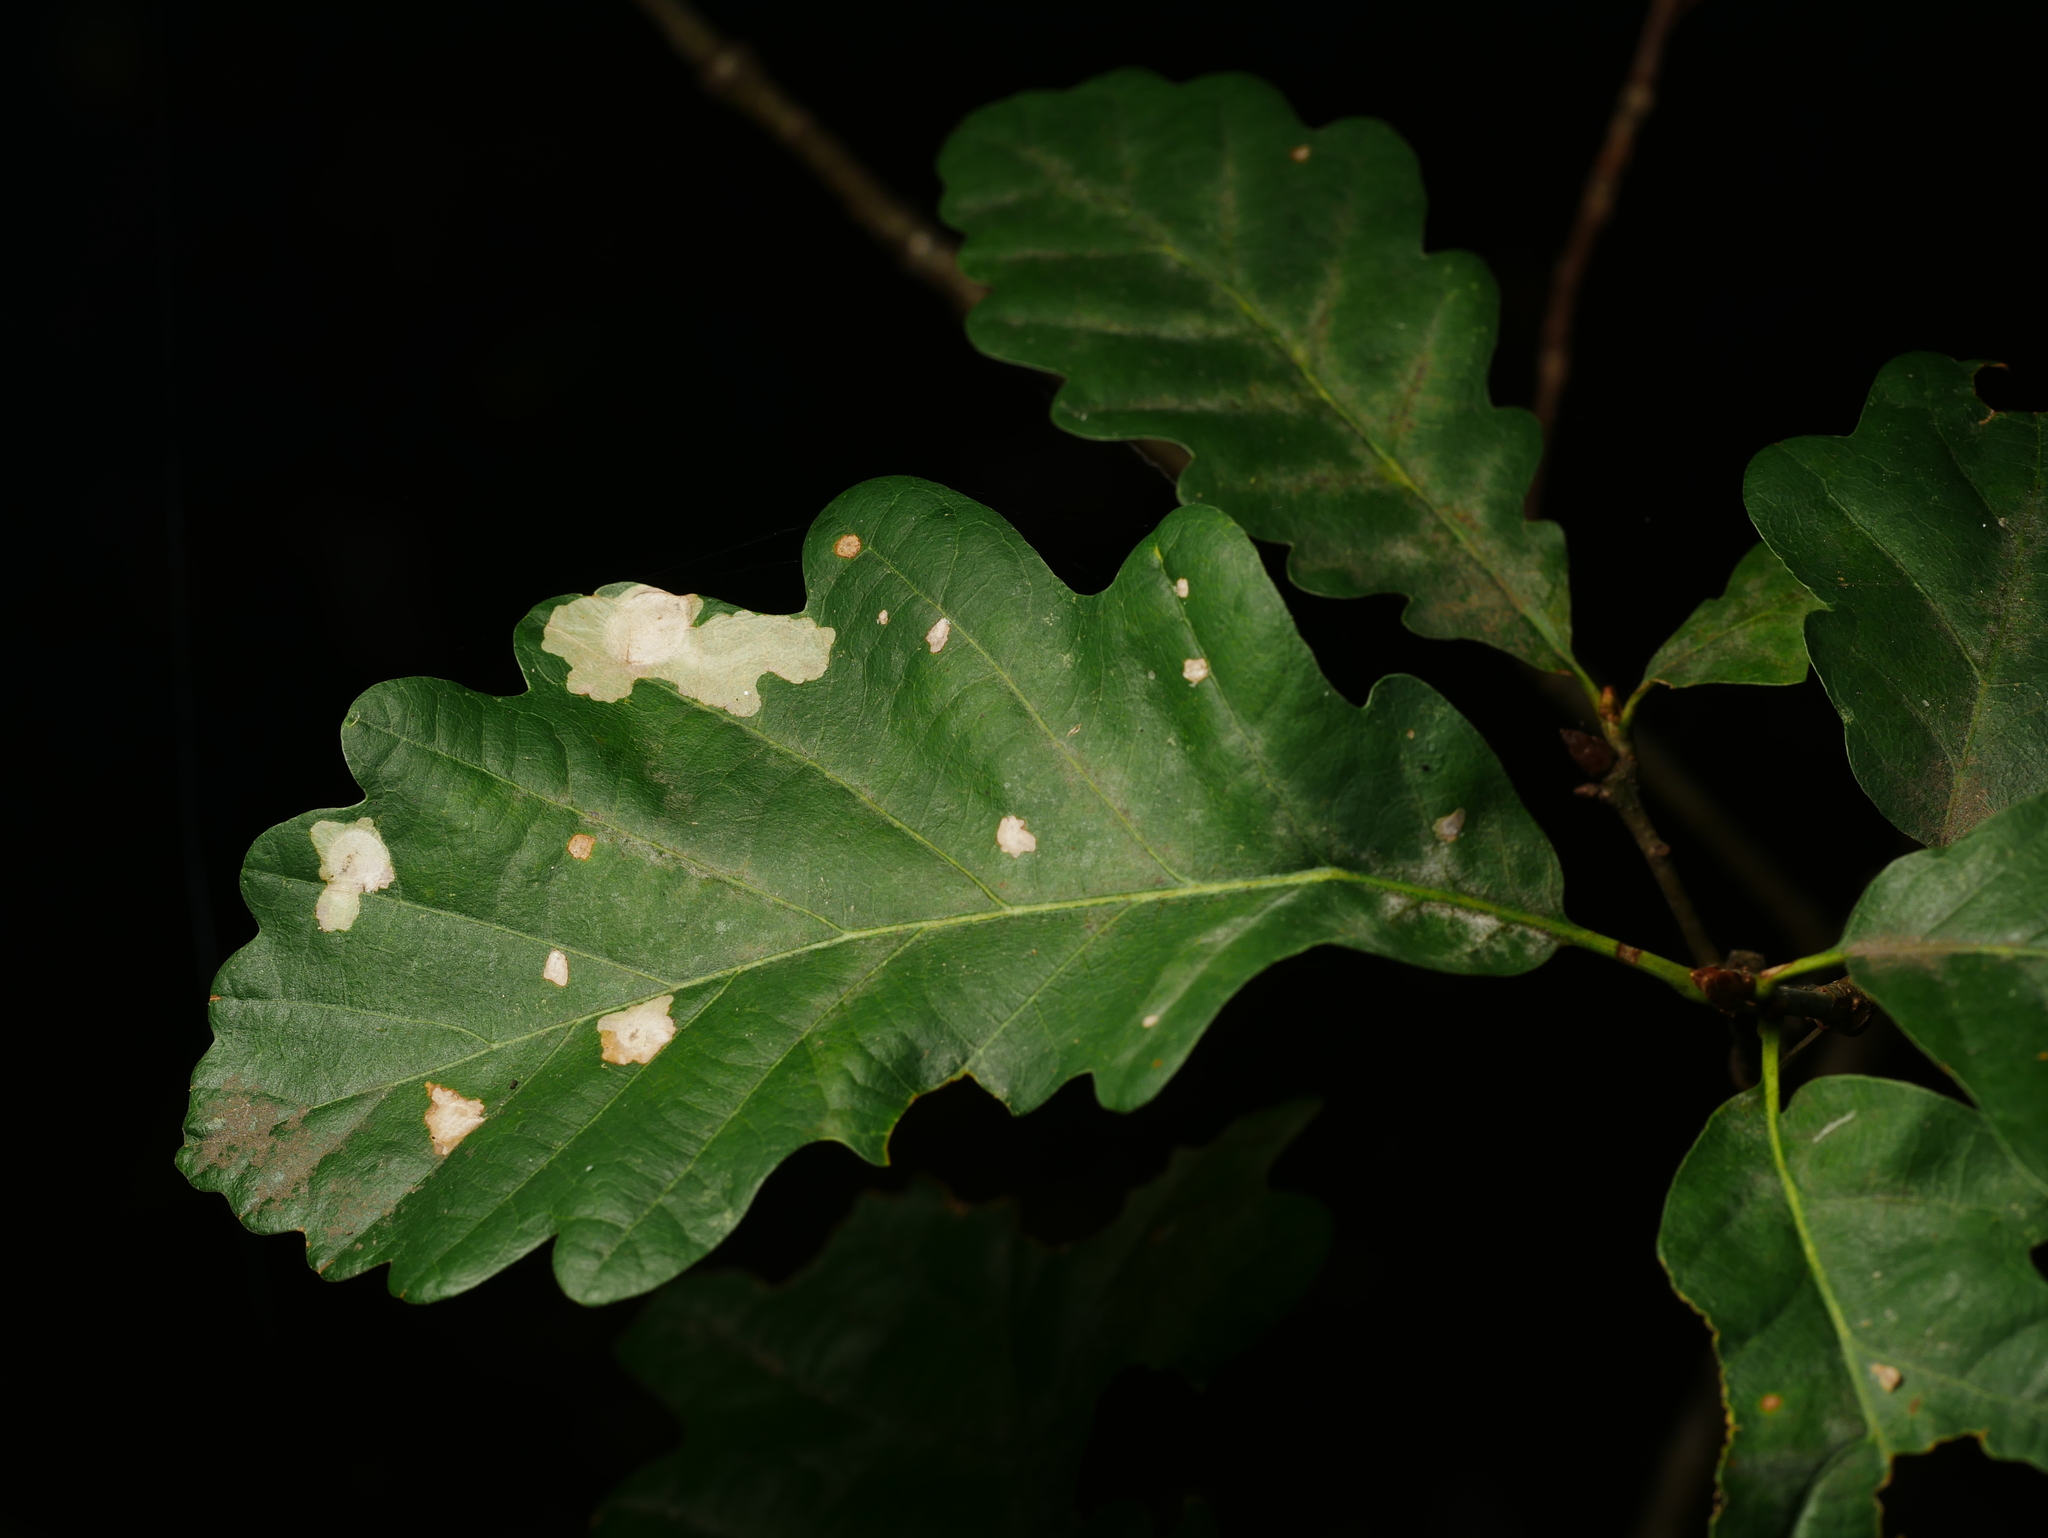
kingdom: Plantae
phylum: Tracheophyta
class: Magnoliopsida
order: Fagales
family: Fagaceae
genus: Quercus
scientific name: Quercus robur
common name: Pedunculate oak
